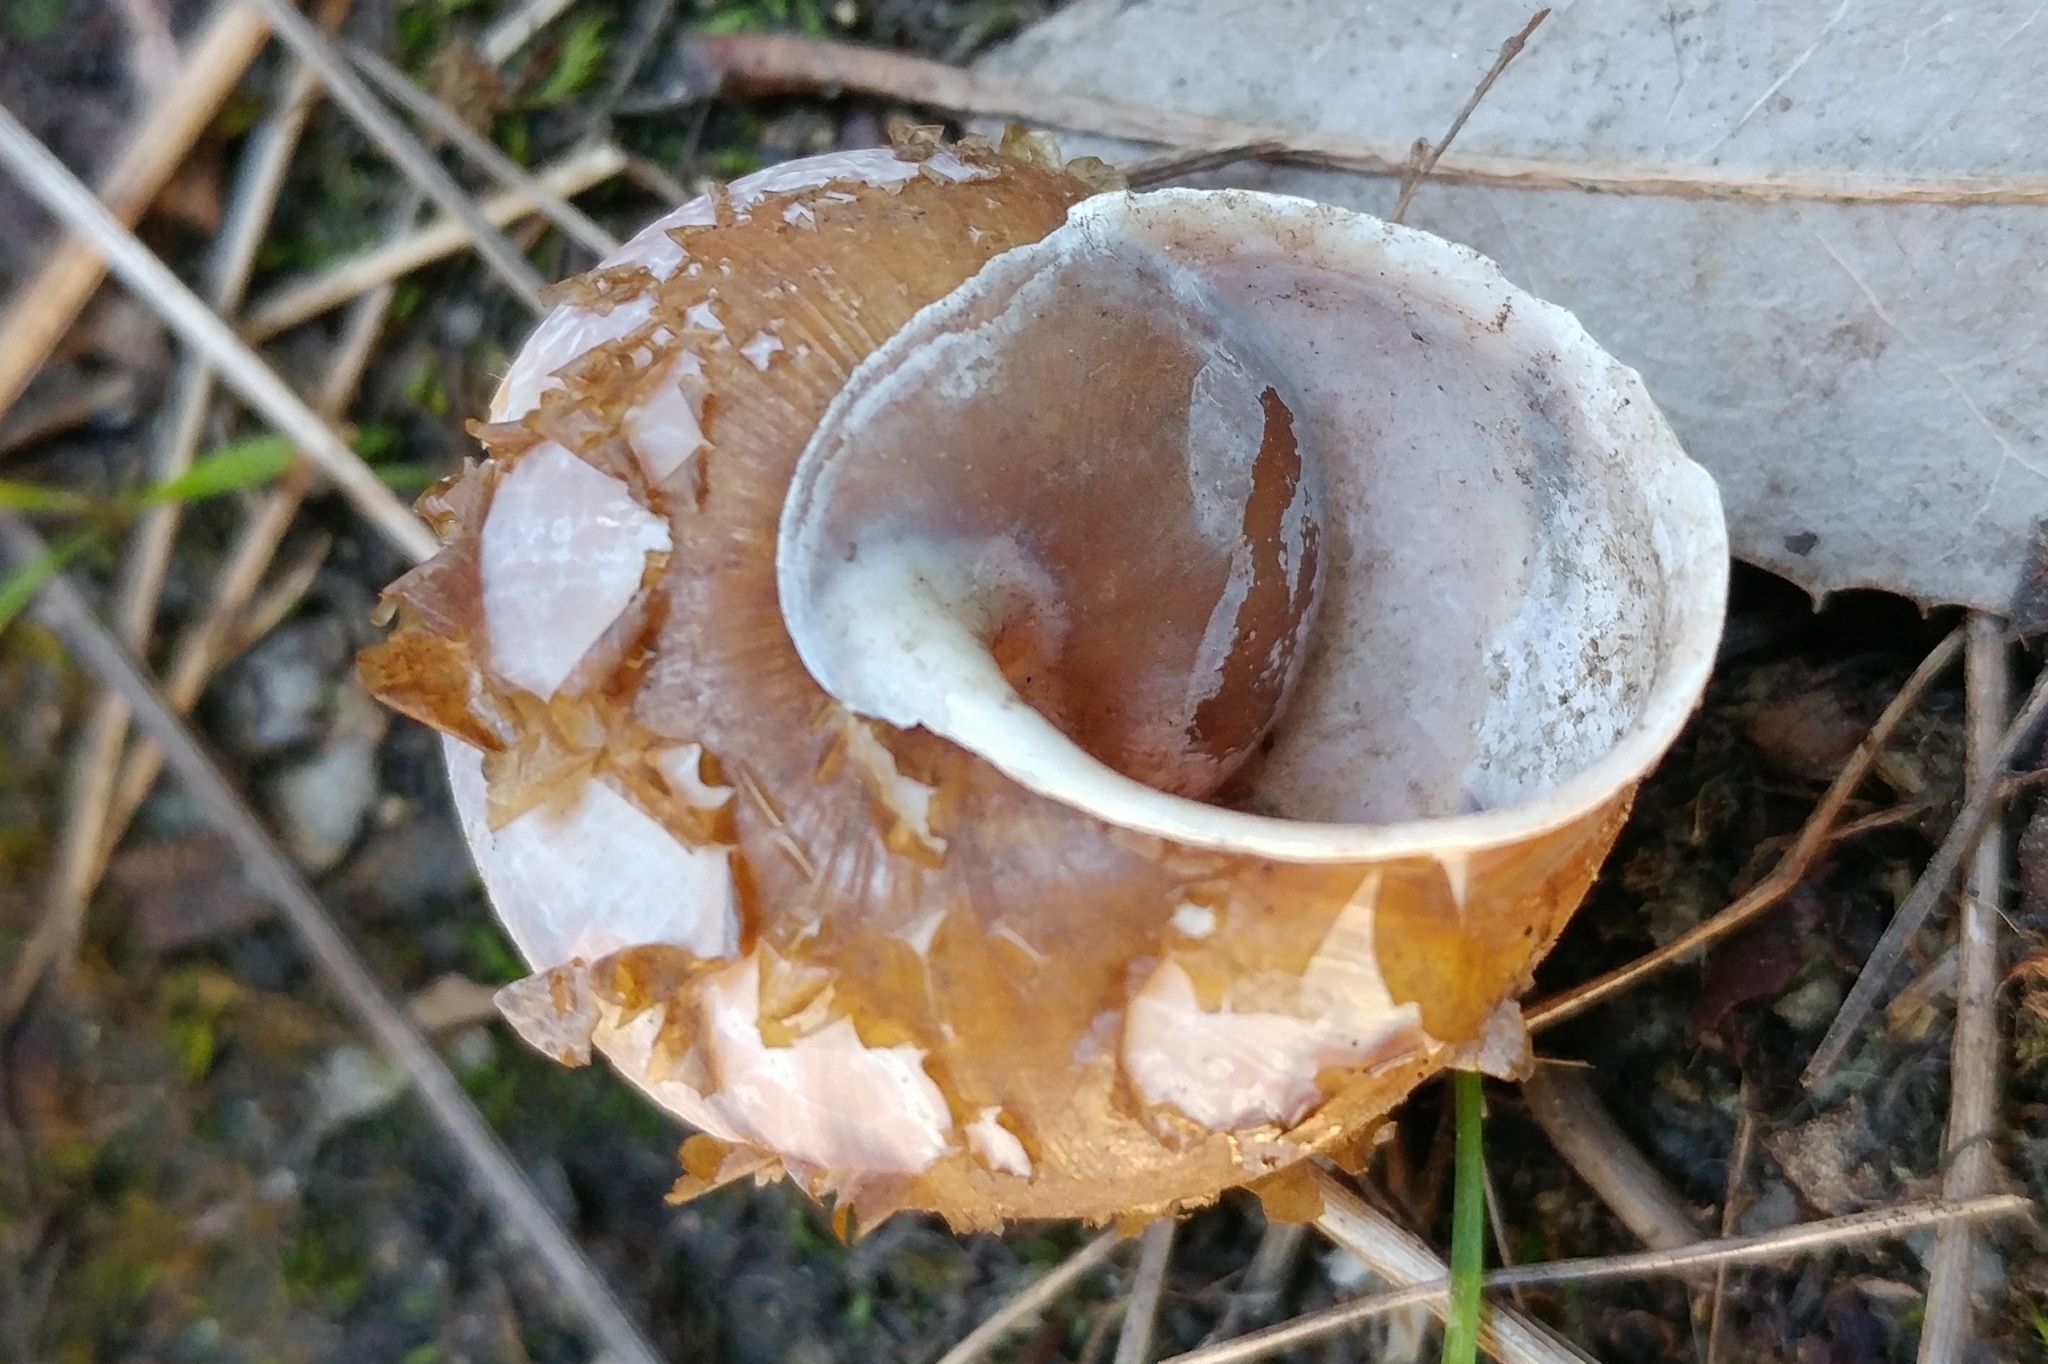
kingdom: Animalia
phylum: Mollusca
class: Gastropoda
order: Stylommatophora
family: Xanthonychidae
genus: Helminthoglypta
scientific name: Helminthoglypta tudiculata
